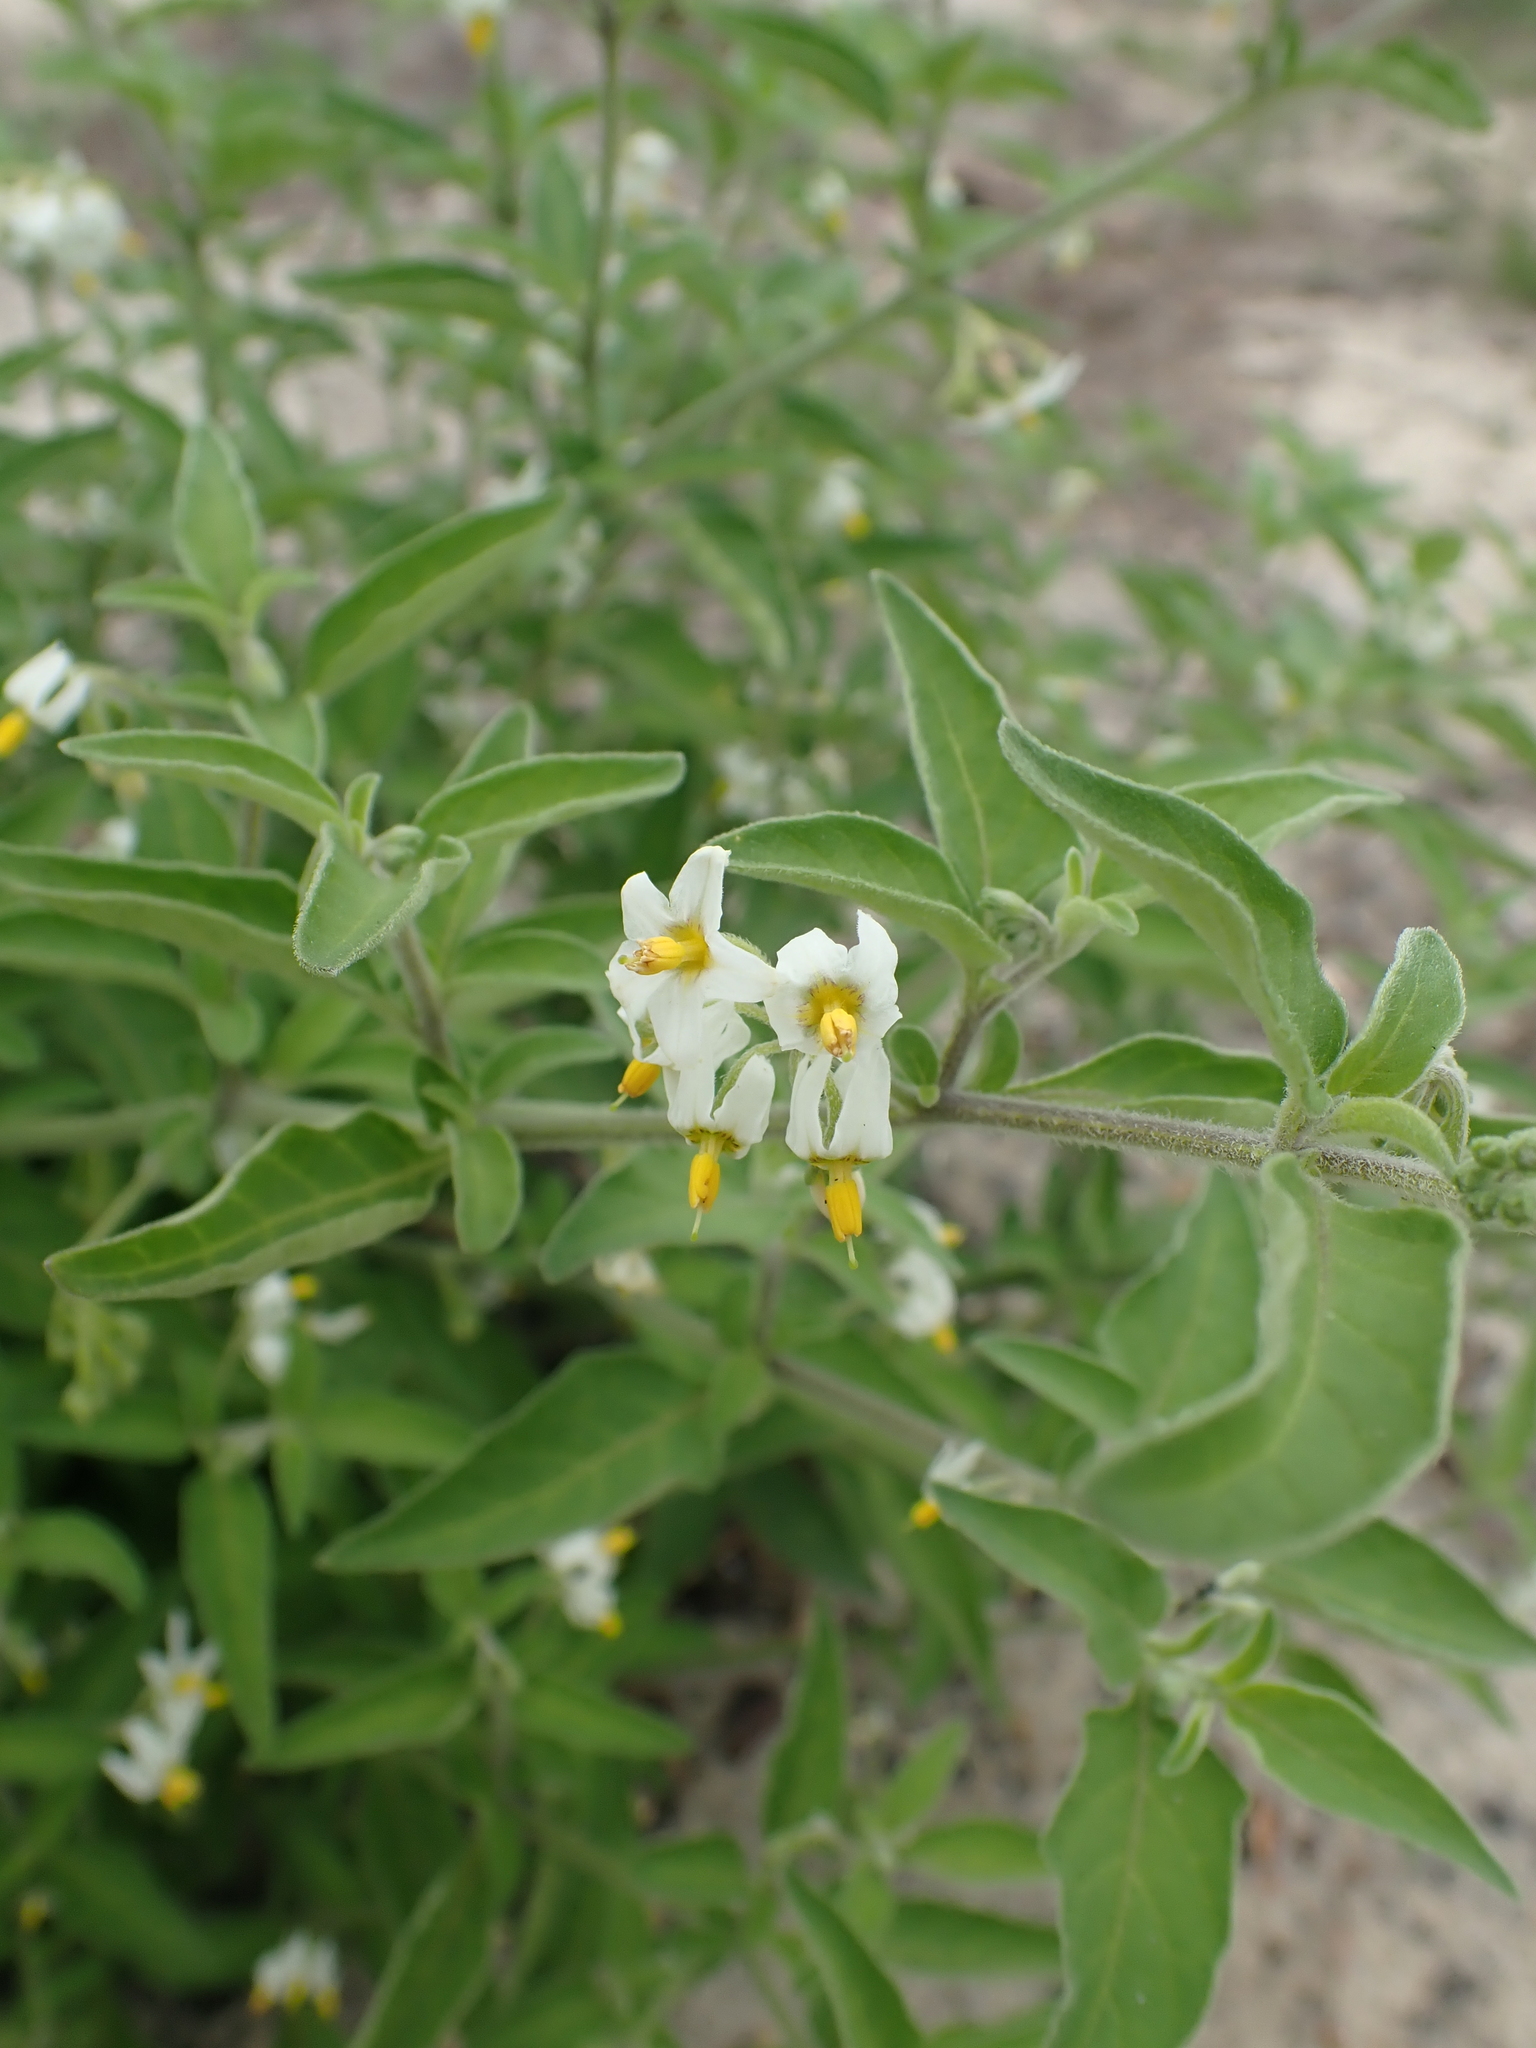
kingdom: Plantae
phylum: Tracheophyta
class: Magnoliopsida
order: Solanales
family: Solanaceae
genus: Solanum
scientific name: Solanum chenopodioides
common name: Tall nightshade
